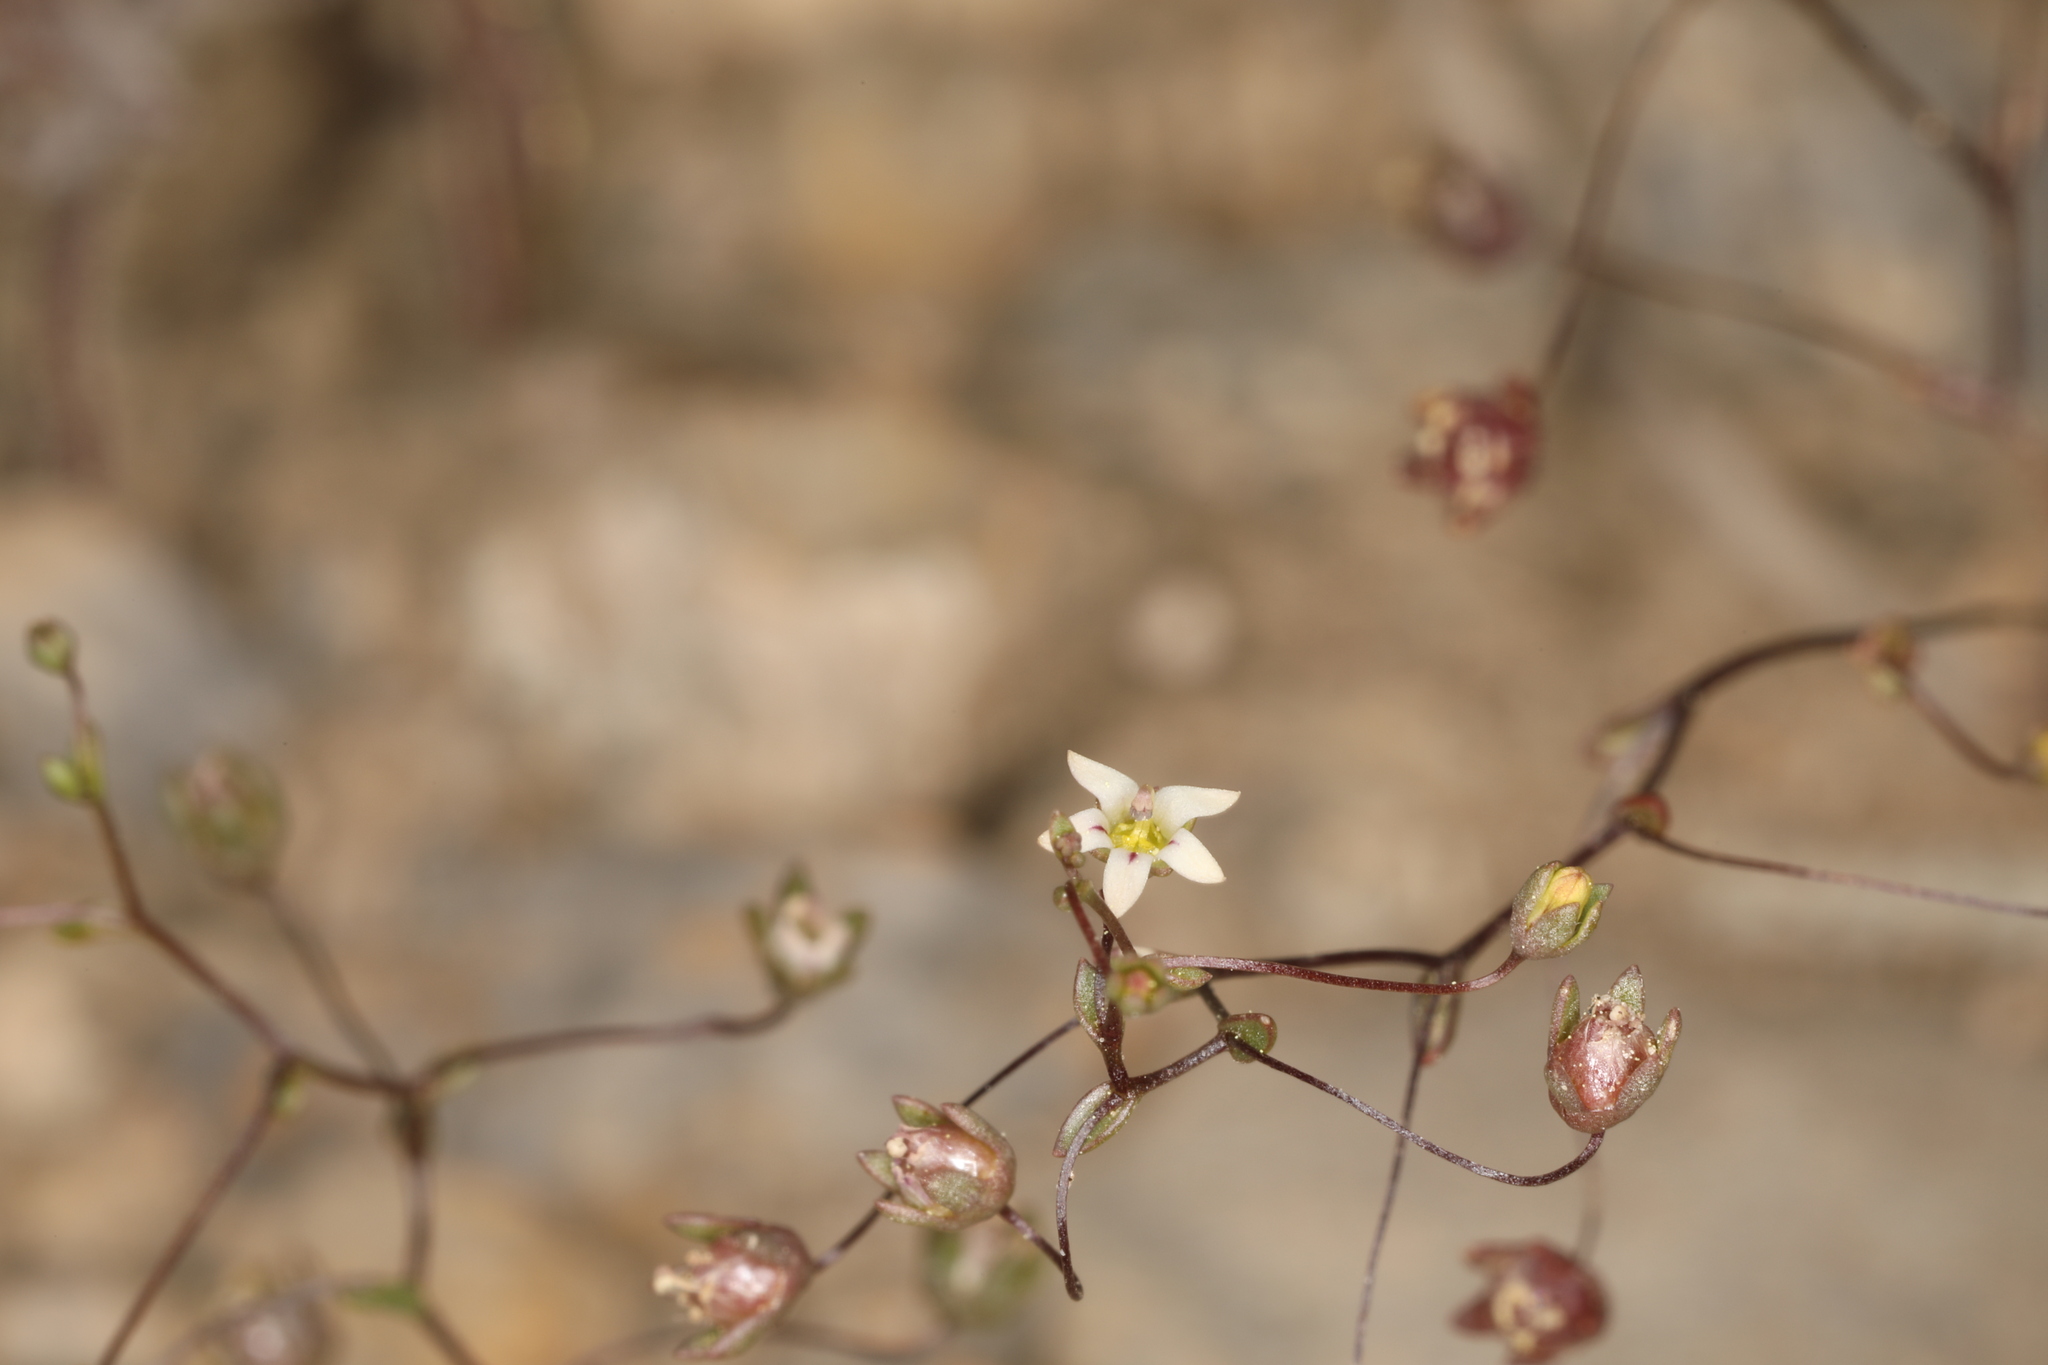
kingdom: Plantae
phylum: Tracheophyta
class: Magnoliopsida
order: Asterales
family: Campanulaceae
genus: Nemacladus
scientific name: Nemacladus inyoensis
